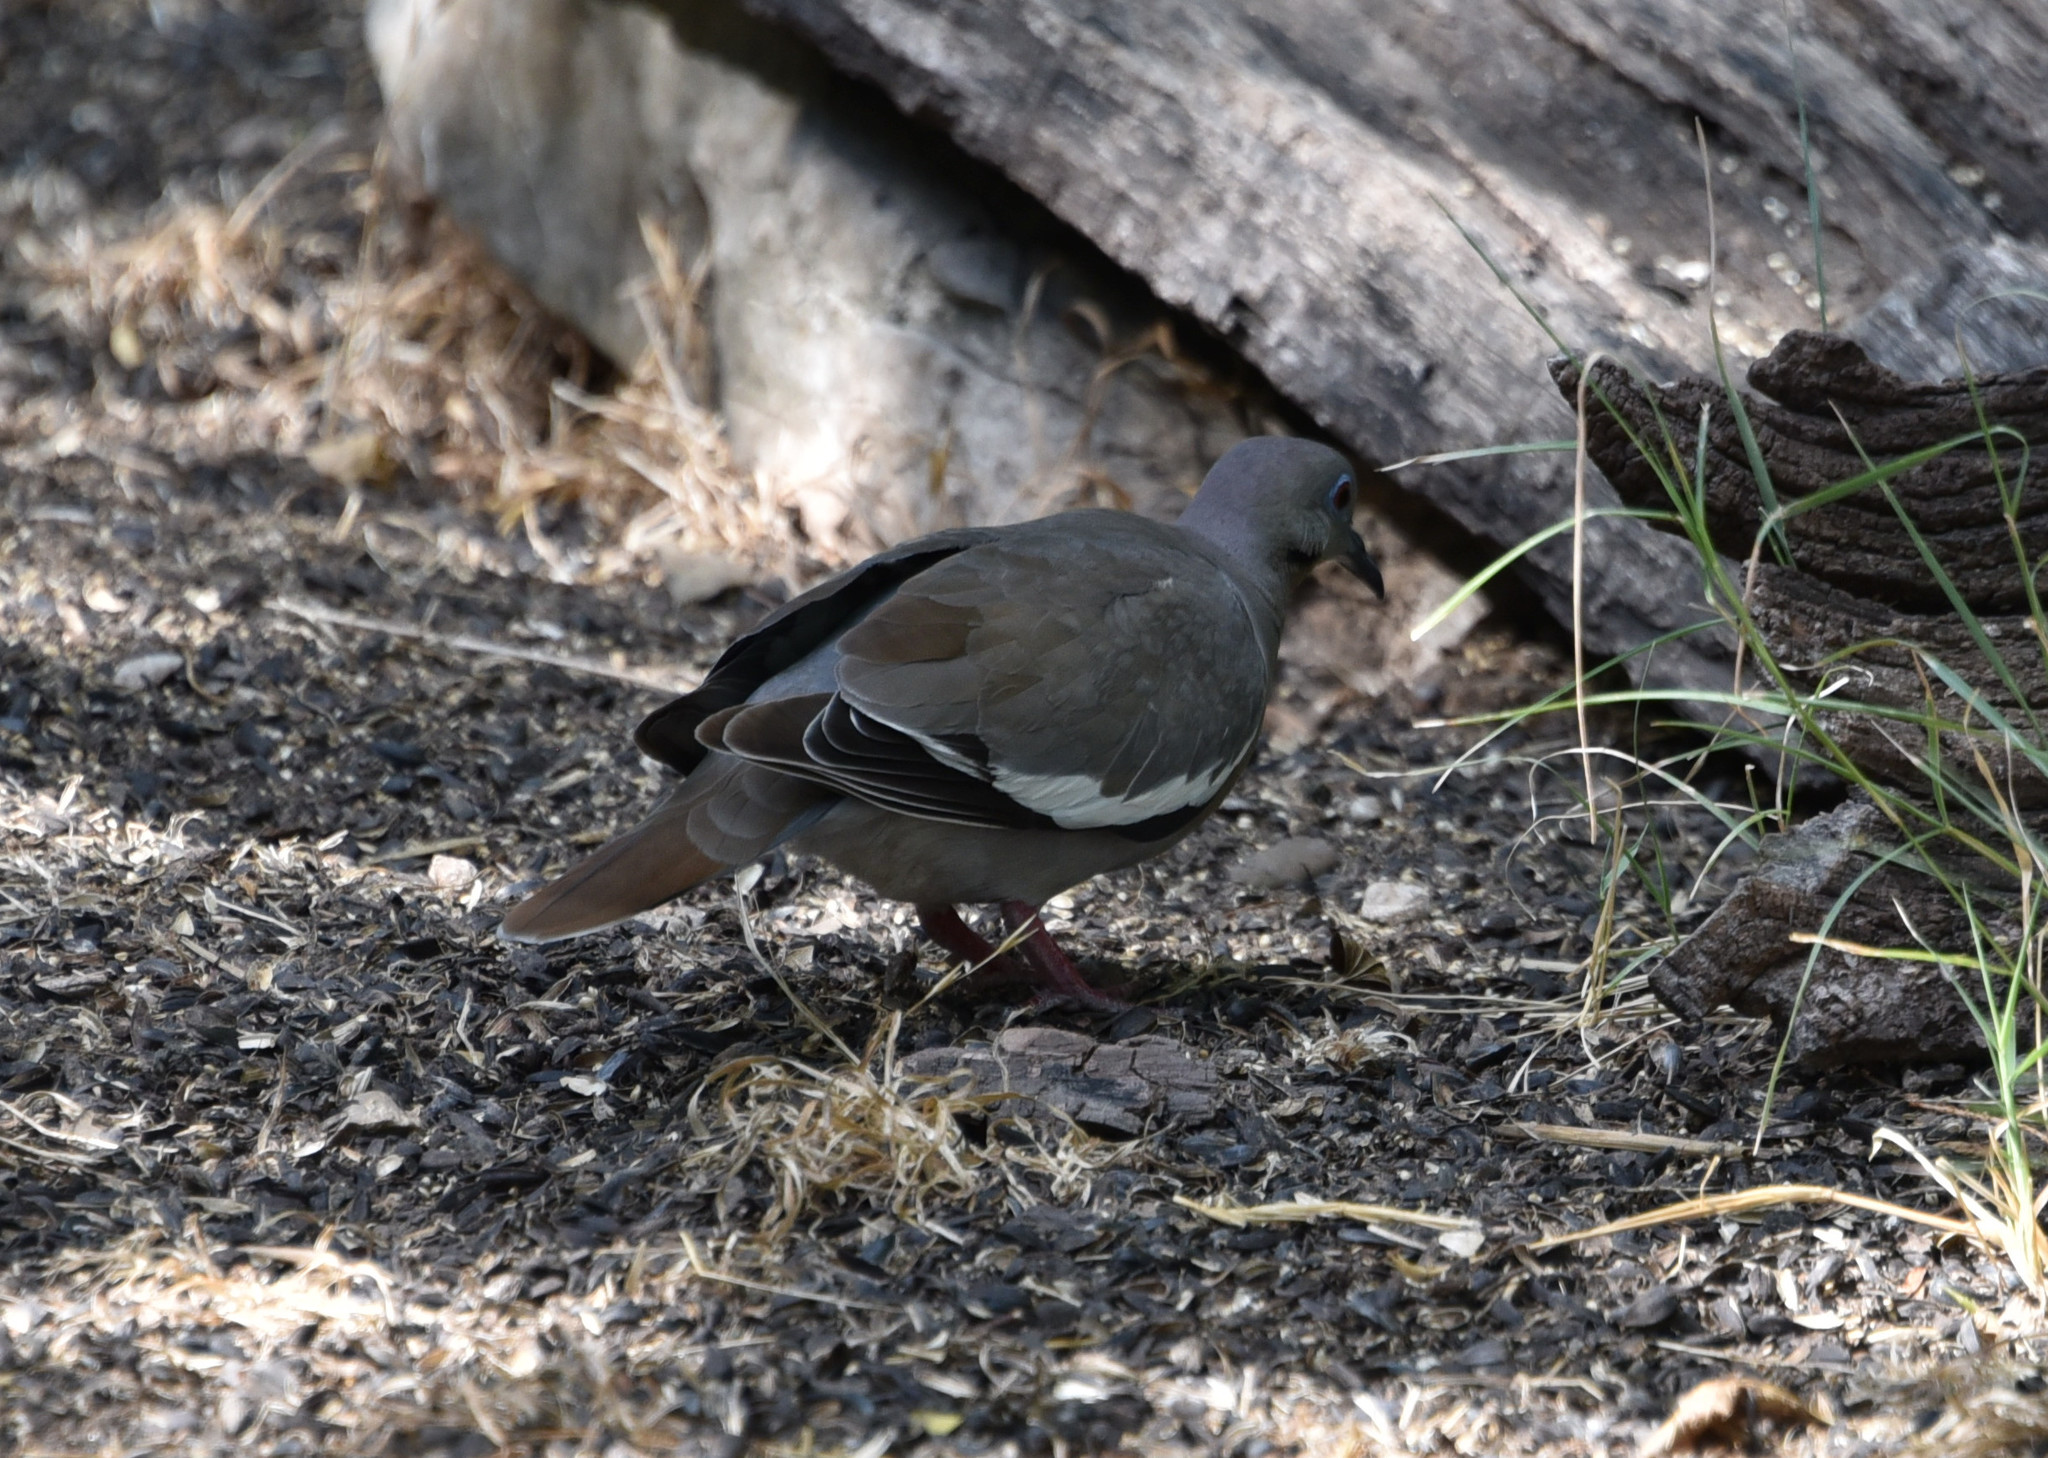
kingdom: Animalia
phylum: Chordata
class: Aves
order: Columbiformes
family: Columbidae
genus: Zenaida
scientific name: Zenaida asiatica
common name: White-winged dove
